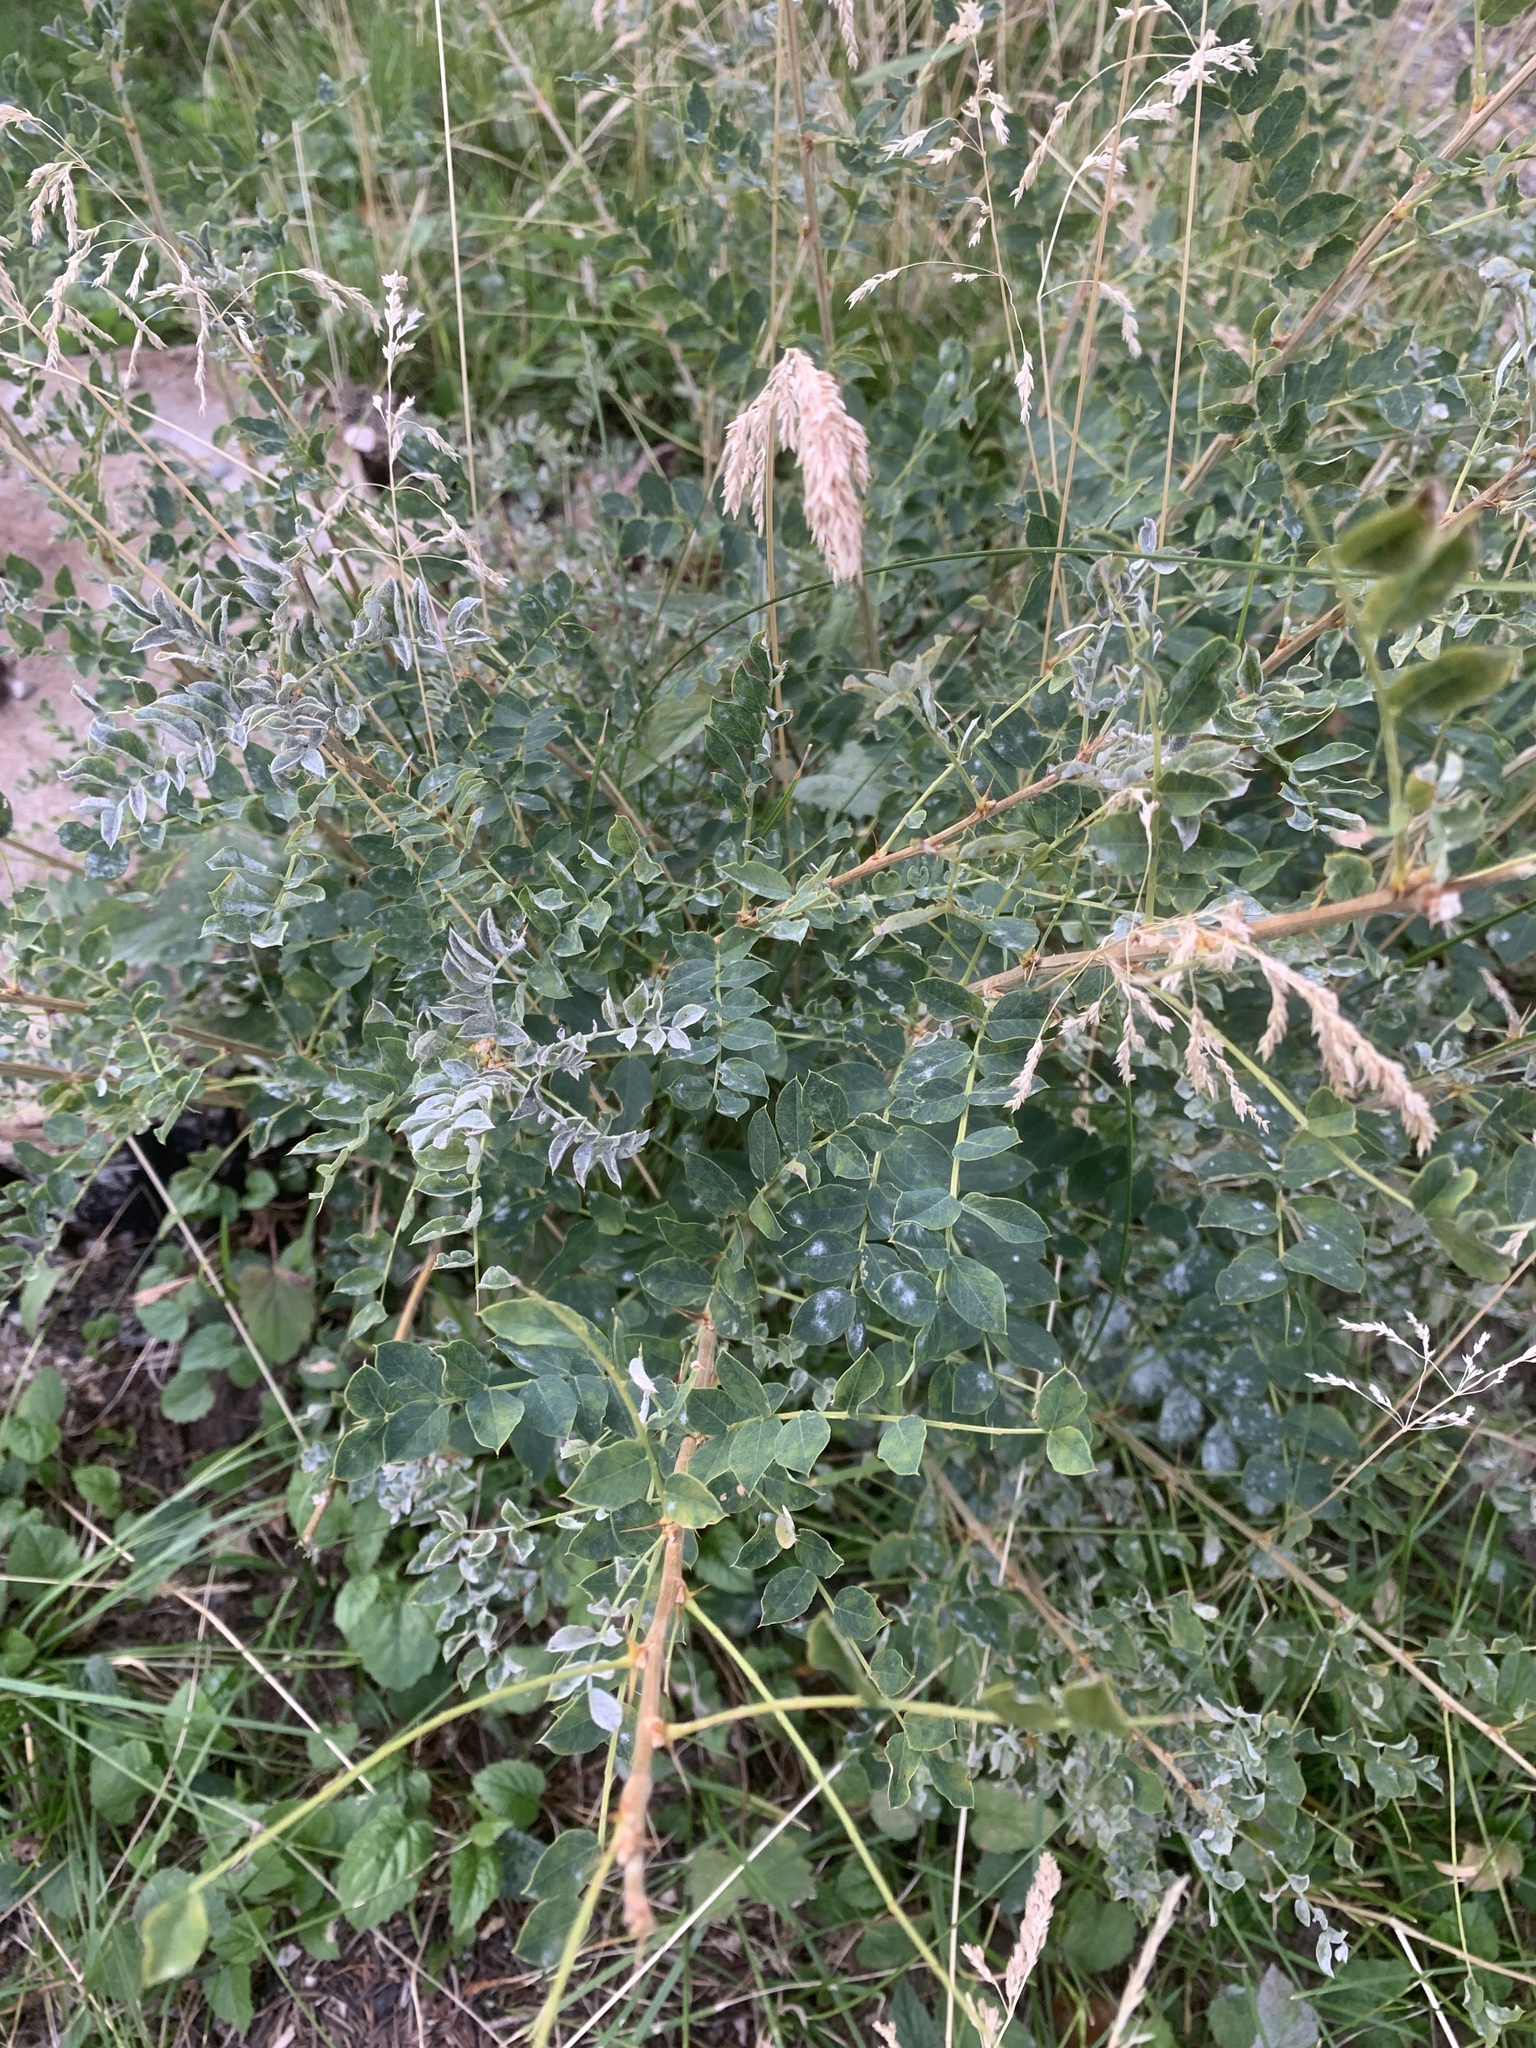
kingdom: Plantae
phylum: Tracheophyta
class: Magnoliopsida
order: Fabales
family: Fabaceae
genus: Caragana
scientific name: Caragana arborescens
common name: Siberian peashrub
